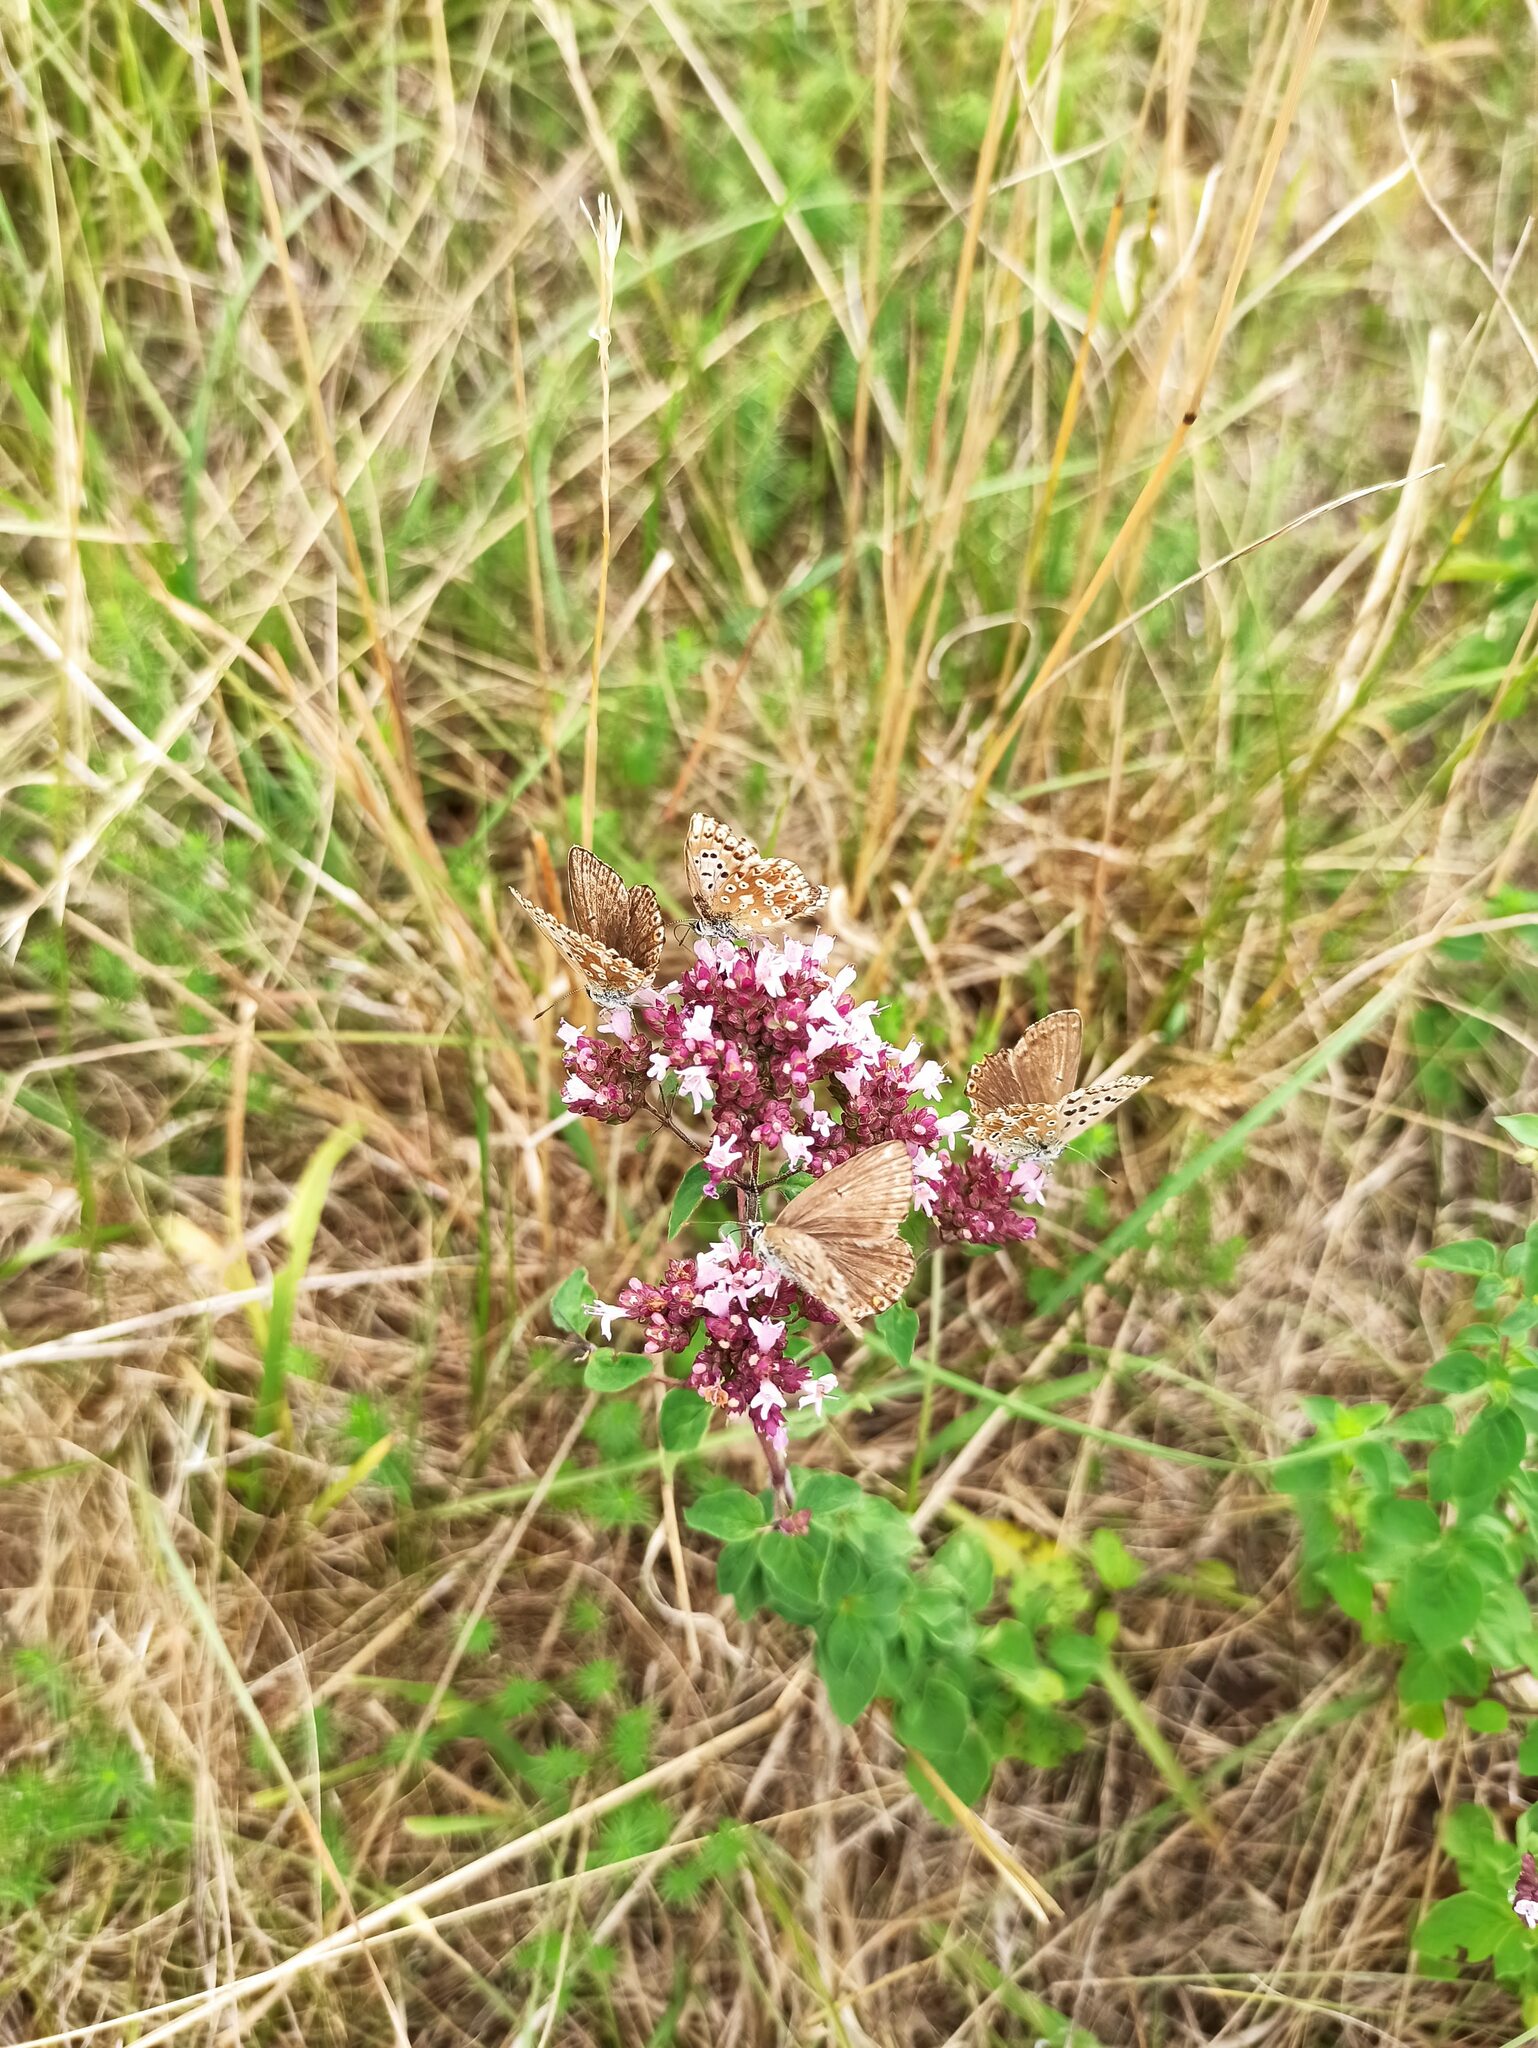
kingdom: Animalia
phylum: Arthropoda
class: Insecta
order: Lepidoptera
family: Lycaenidae
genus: Lysandra
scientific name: Lysandra coridon
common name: Chalkhill blue
